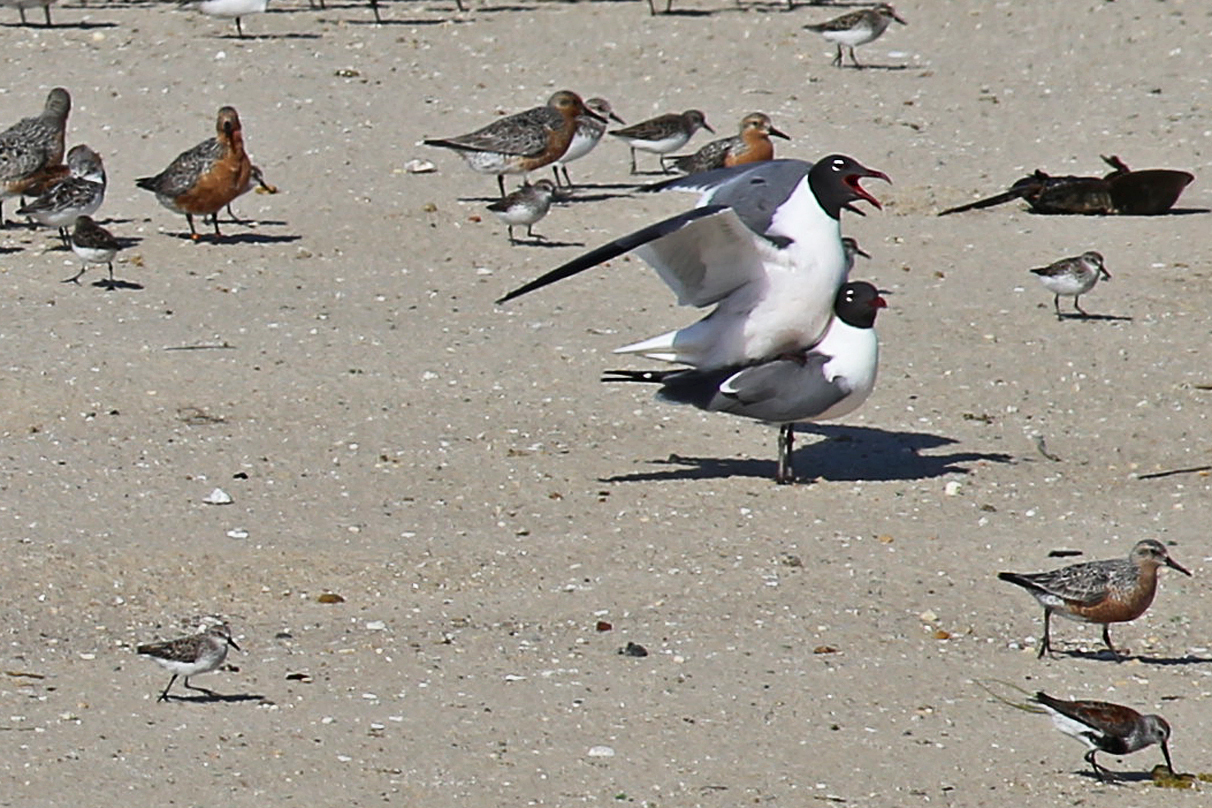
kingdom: Animalia
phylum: Chordata
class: Aves
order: Charadriiformes
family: Laridae
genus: Leucophaeus
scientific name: Leucophaeus atricilla
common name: Laughing gull
